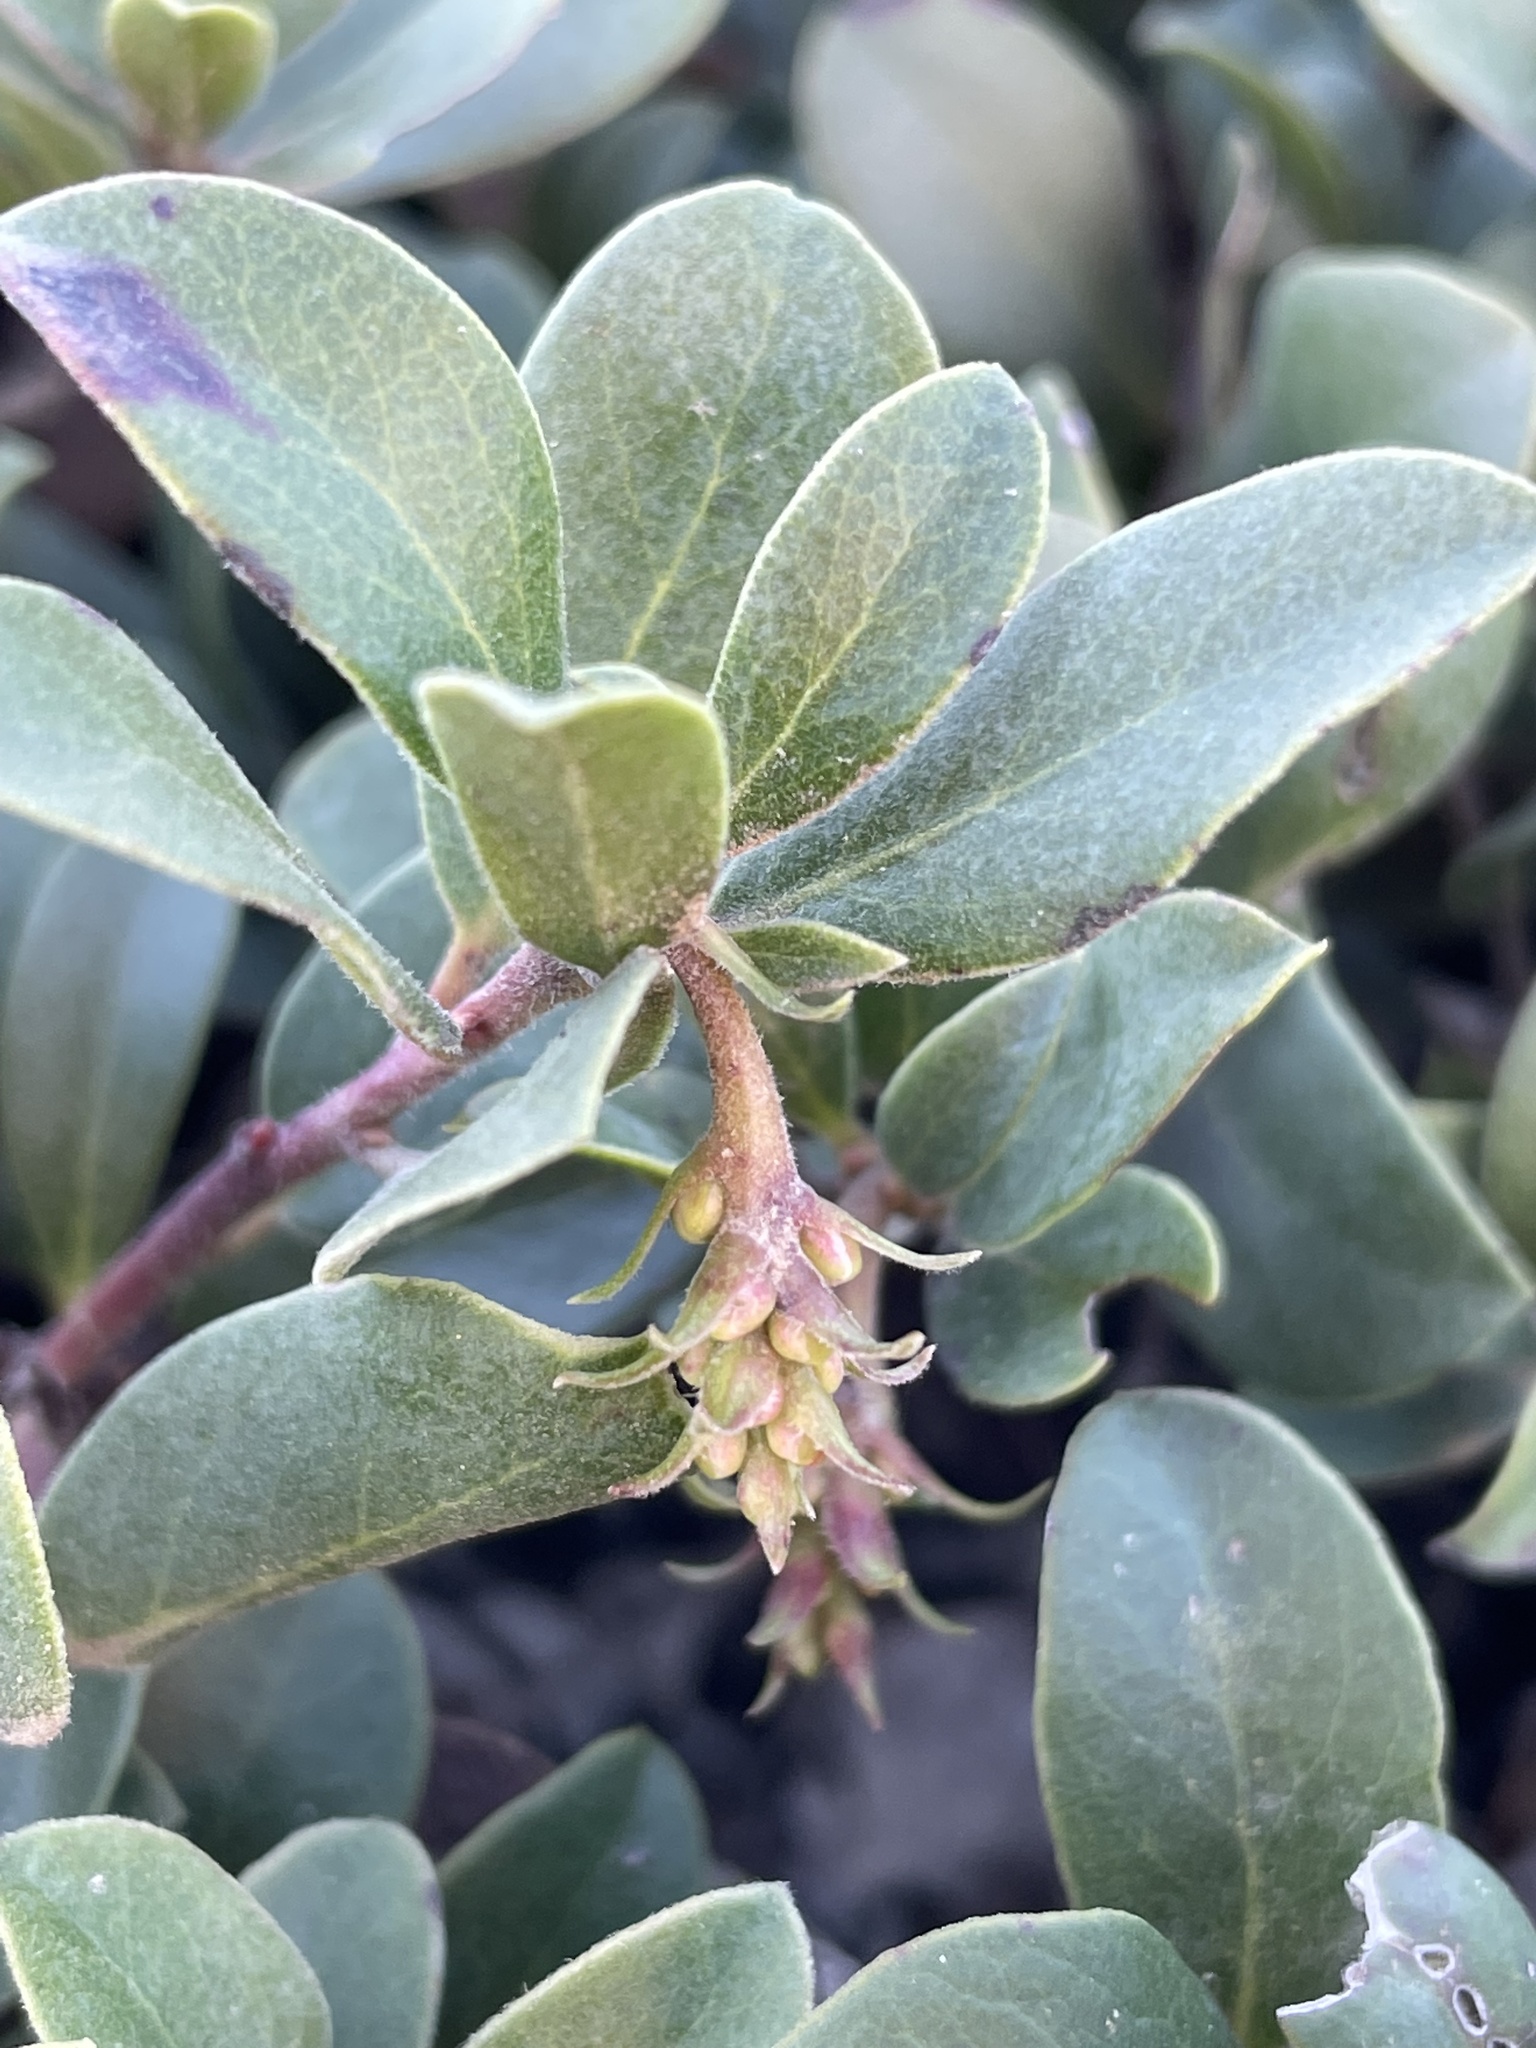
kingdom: Plantae
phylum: Tracheophyta
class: Magnoliopsida
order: Ericales
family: Ericaceae
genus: Arctostaphylos
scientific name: Arctostaphylos uva-ursi
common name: Bearberry
